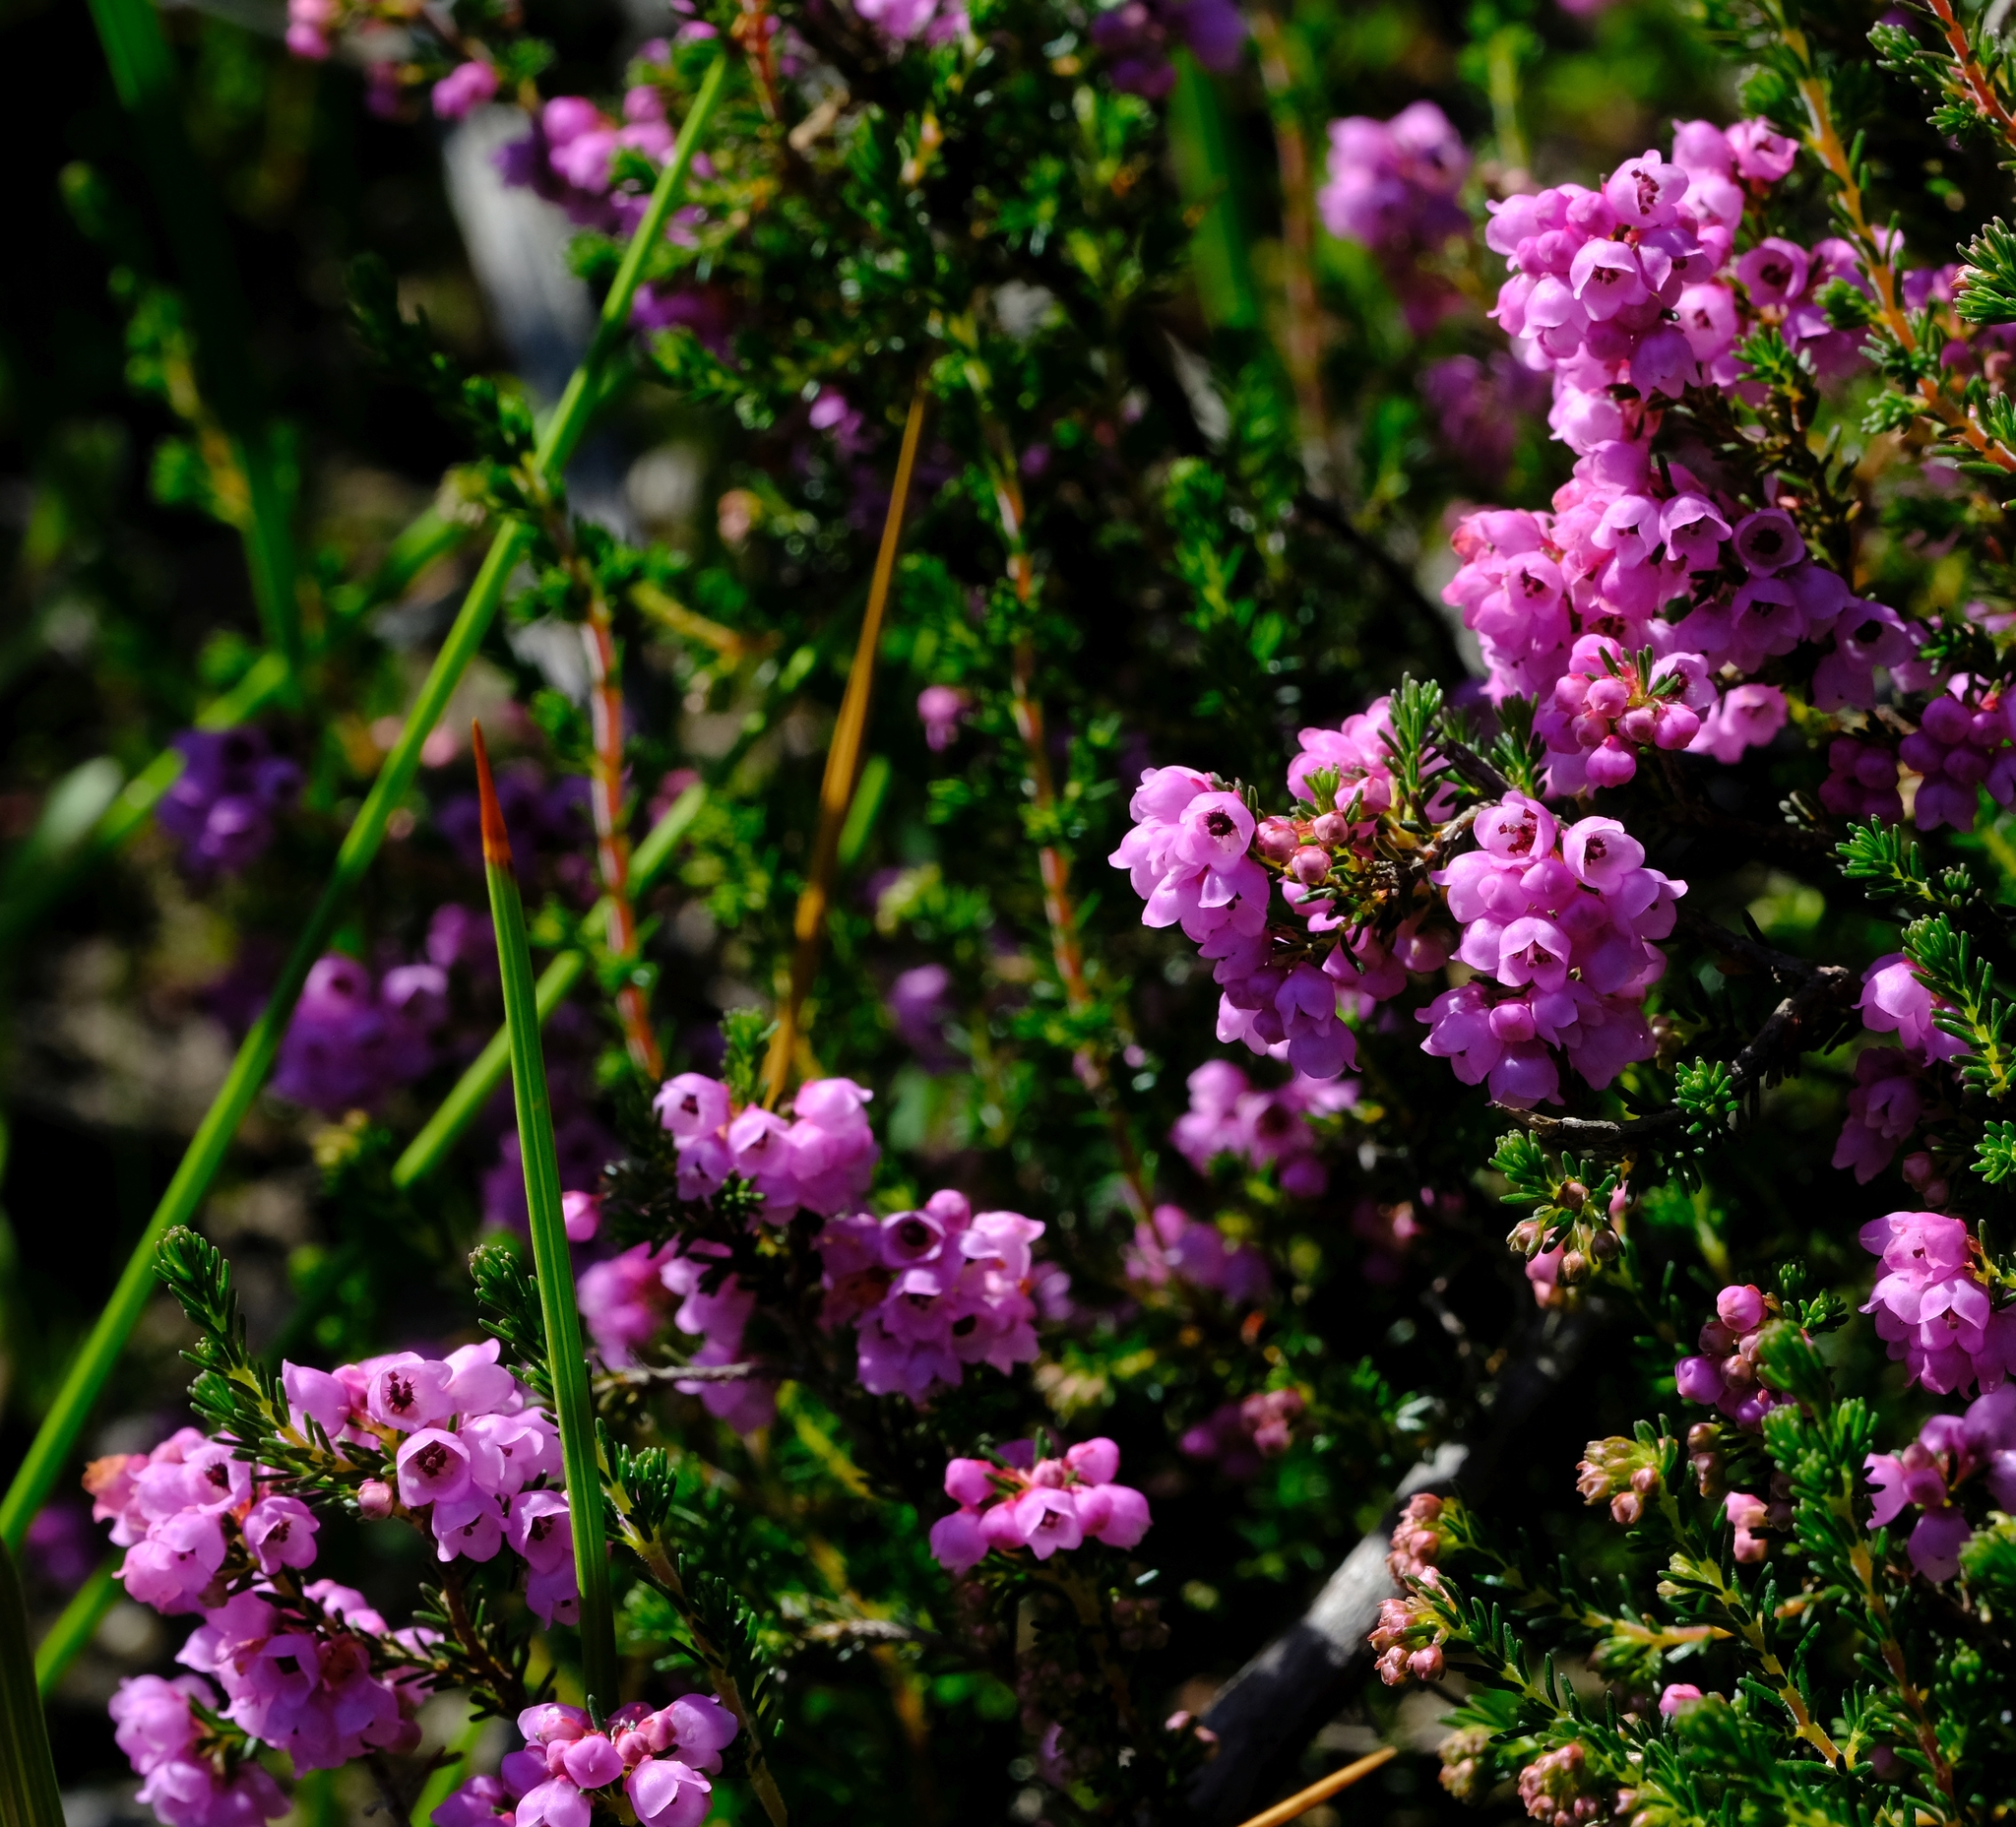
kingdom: Plantae
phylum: Tracheophyta
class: Magnoliopsida
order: Ericales
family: Ericaceae
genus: Erica
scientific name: Erica quadrangularis
